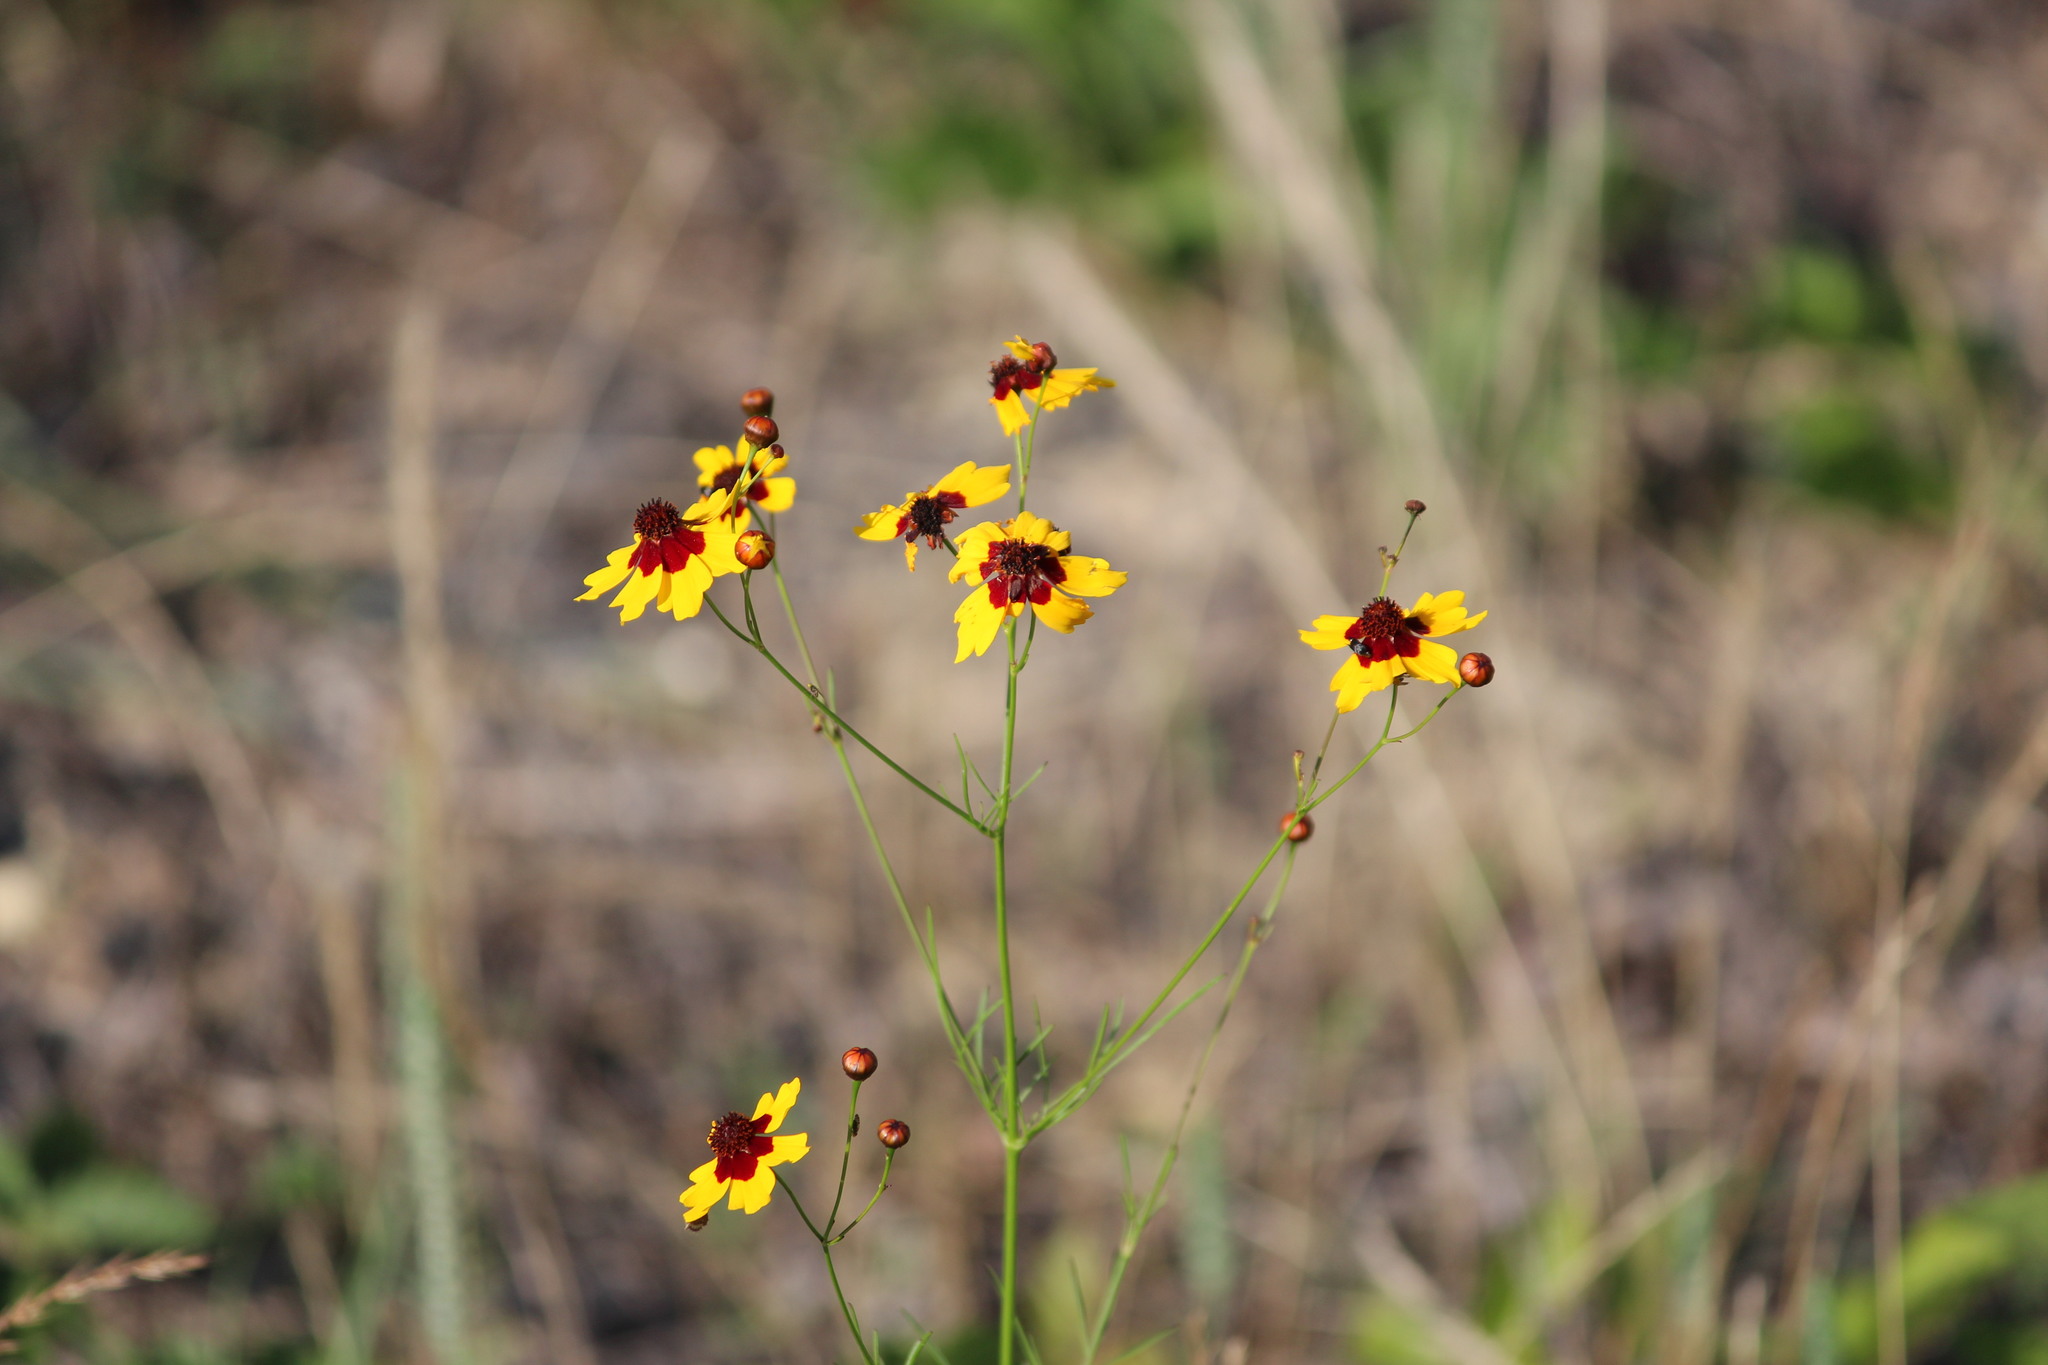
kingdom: Plantae
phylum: Tracheophyta
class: Magnoliopsida
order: Asterales
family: Asteraceae
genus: Coreopsis
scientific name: Coreopsis tinctoria
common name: Garden tickseed
